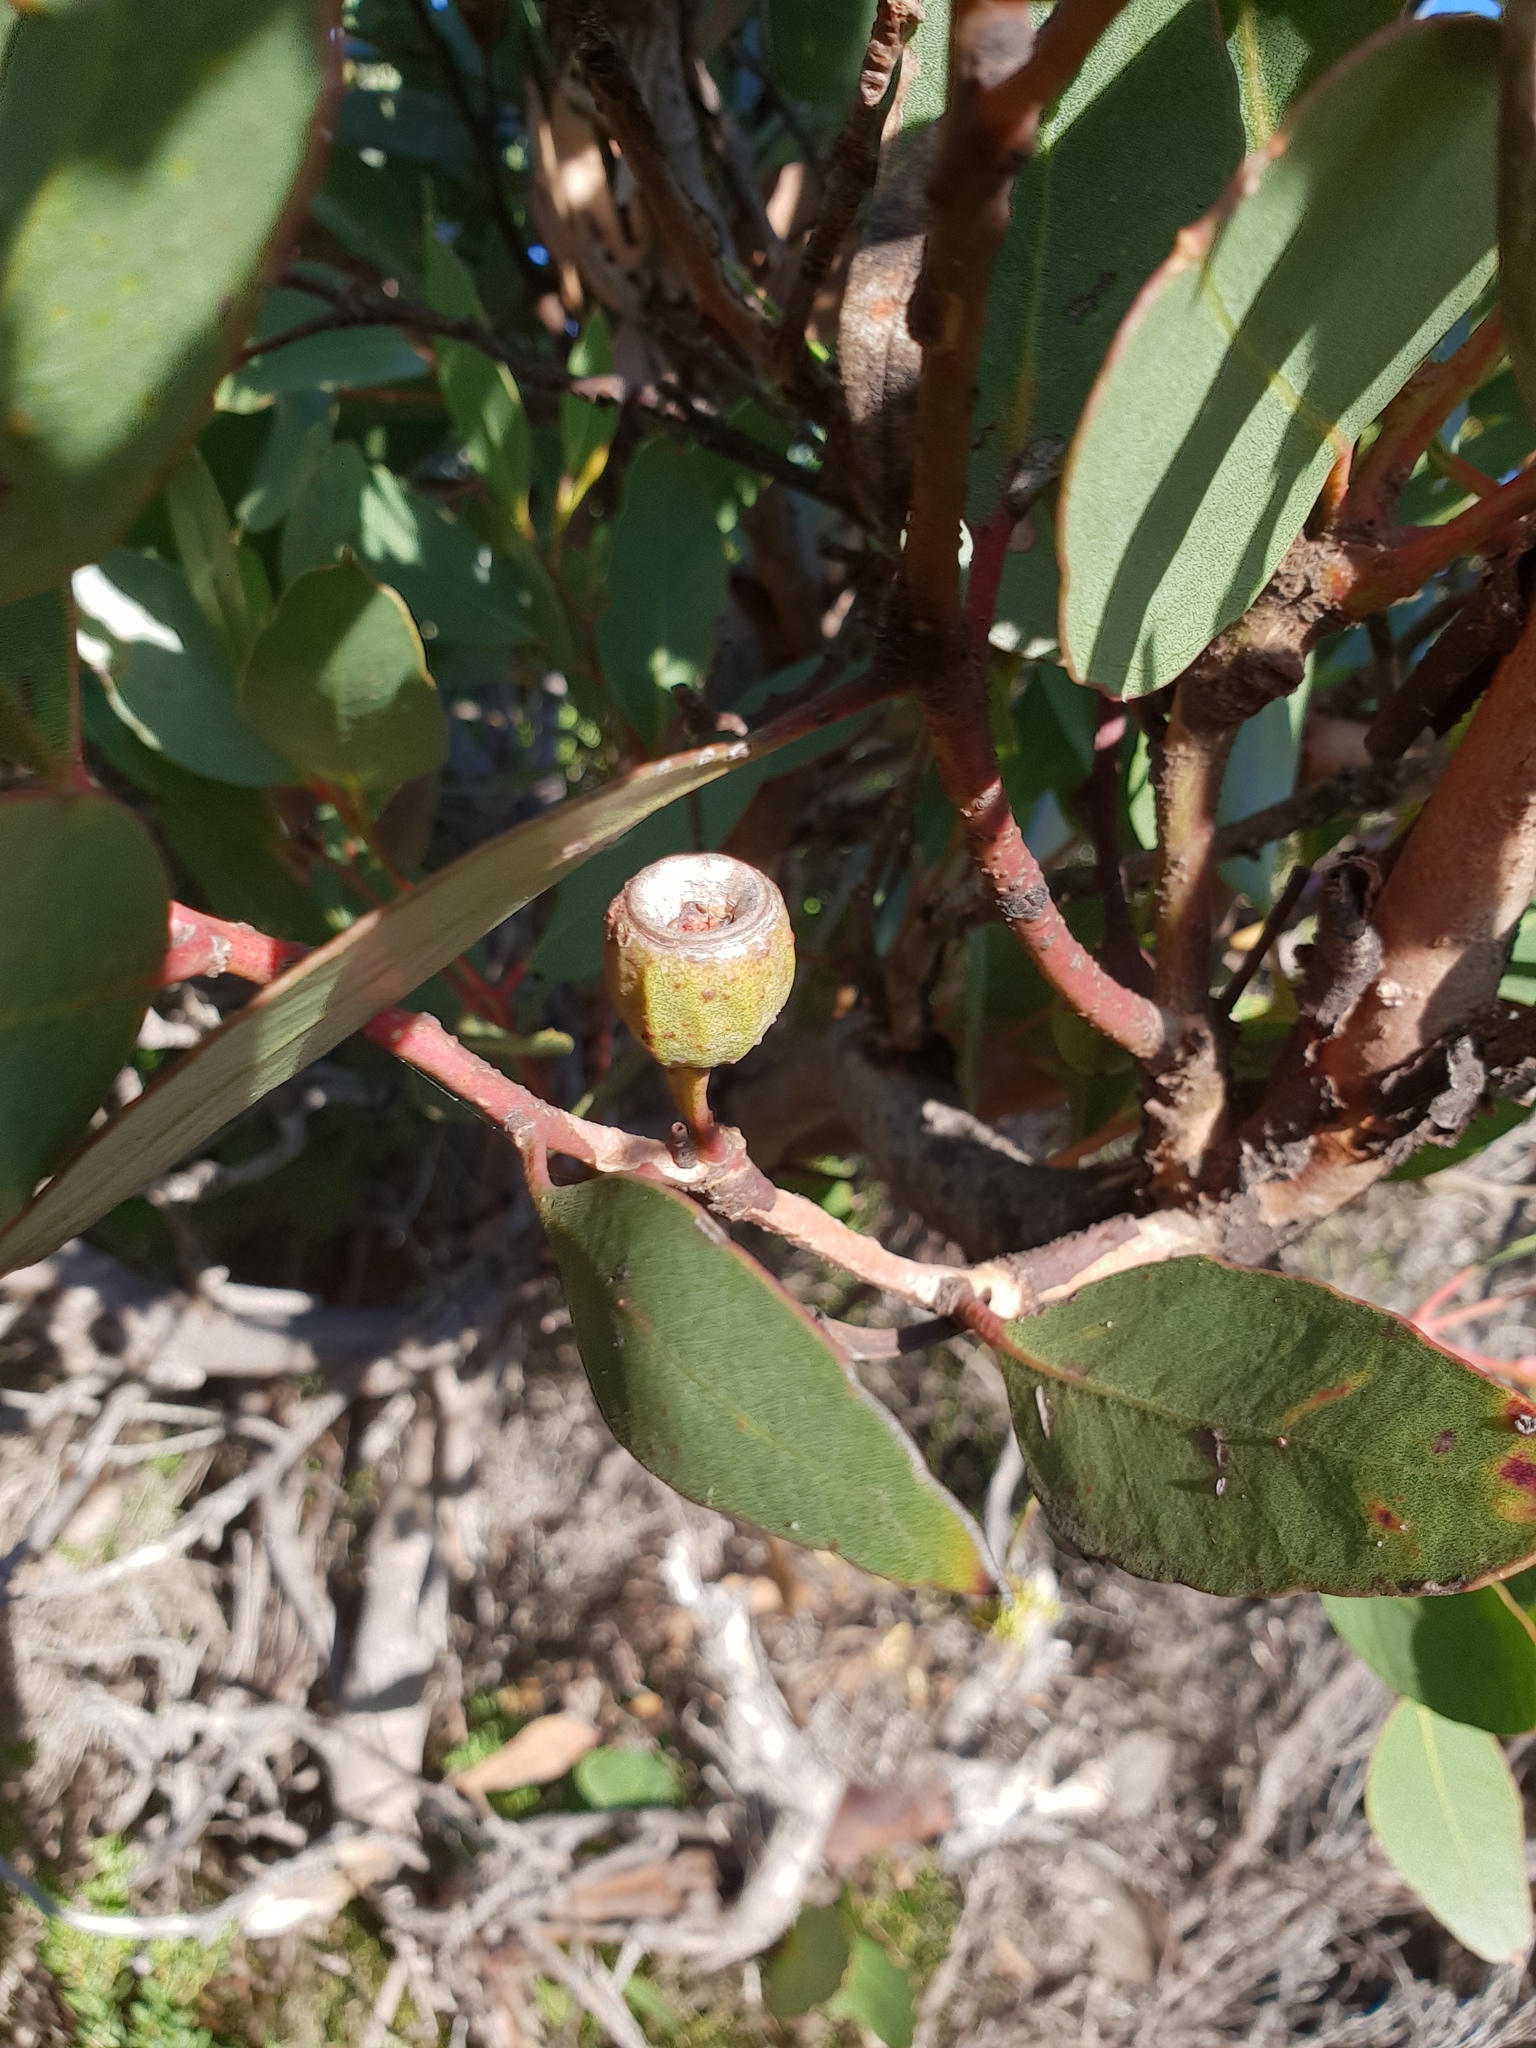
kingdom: Plantae
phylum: Tracheophyta
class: Magnoliopsida
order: Myrtales
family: Myrtaceae
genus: Eucalyptus
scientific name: Eucalyptus angulosa
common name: Ridge-fruited mallee
